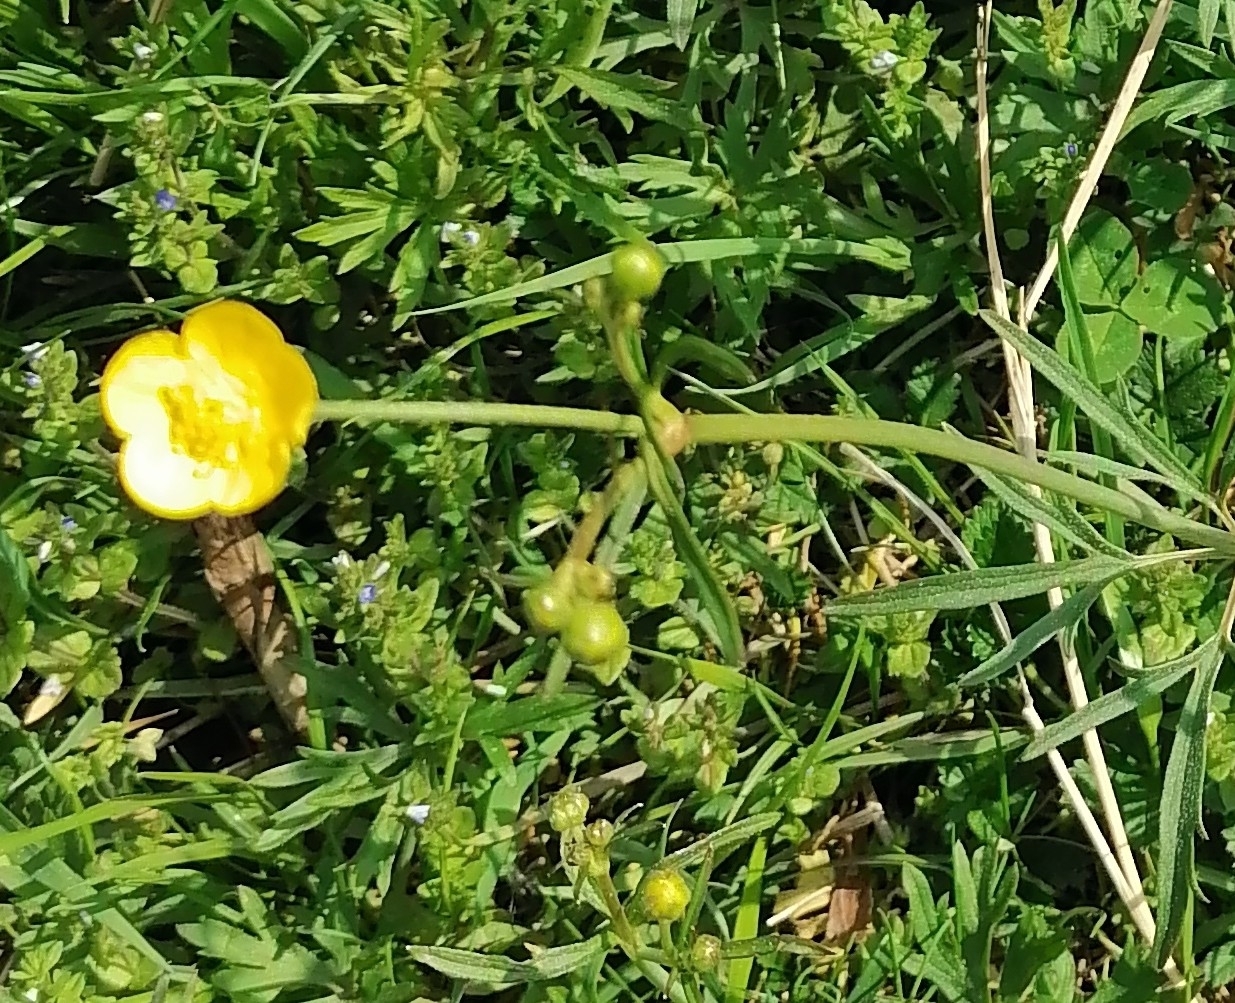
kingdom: Plantae
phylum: Tracheophyta
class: Magnoliopsida
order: Ranunculales
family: Ranunculaceae
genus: Ranunculus
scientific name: Ranunculus acris
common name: Meadow buttercup
